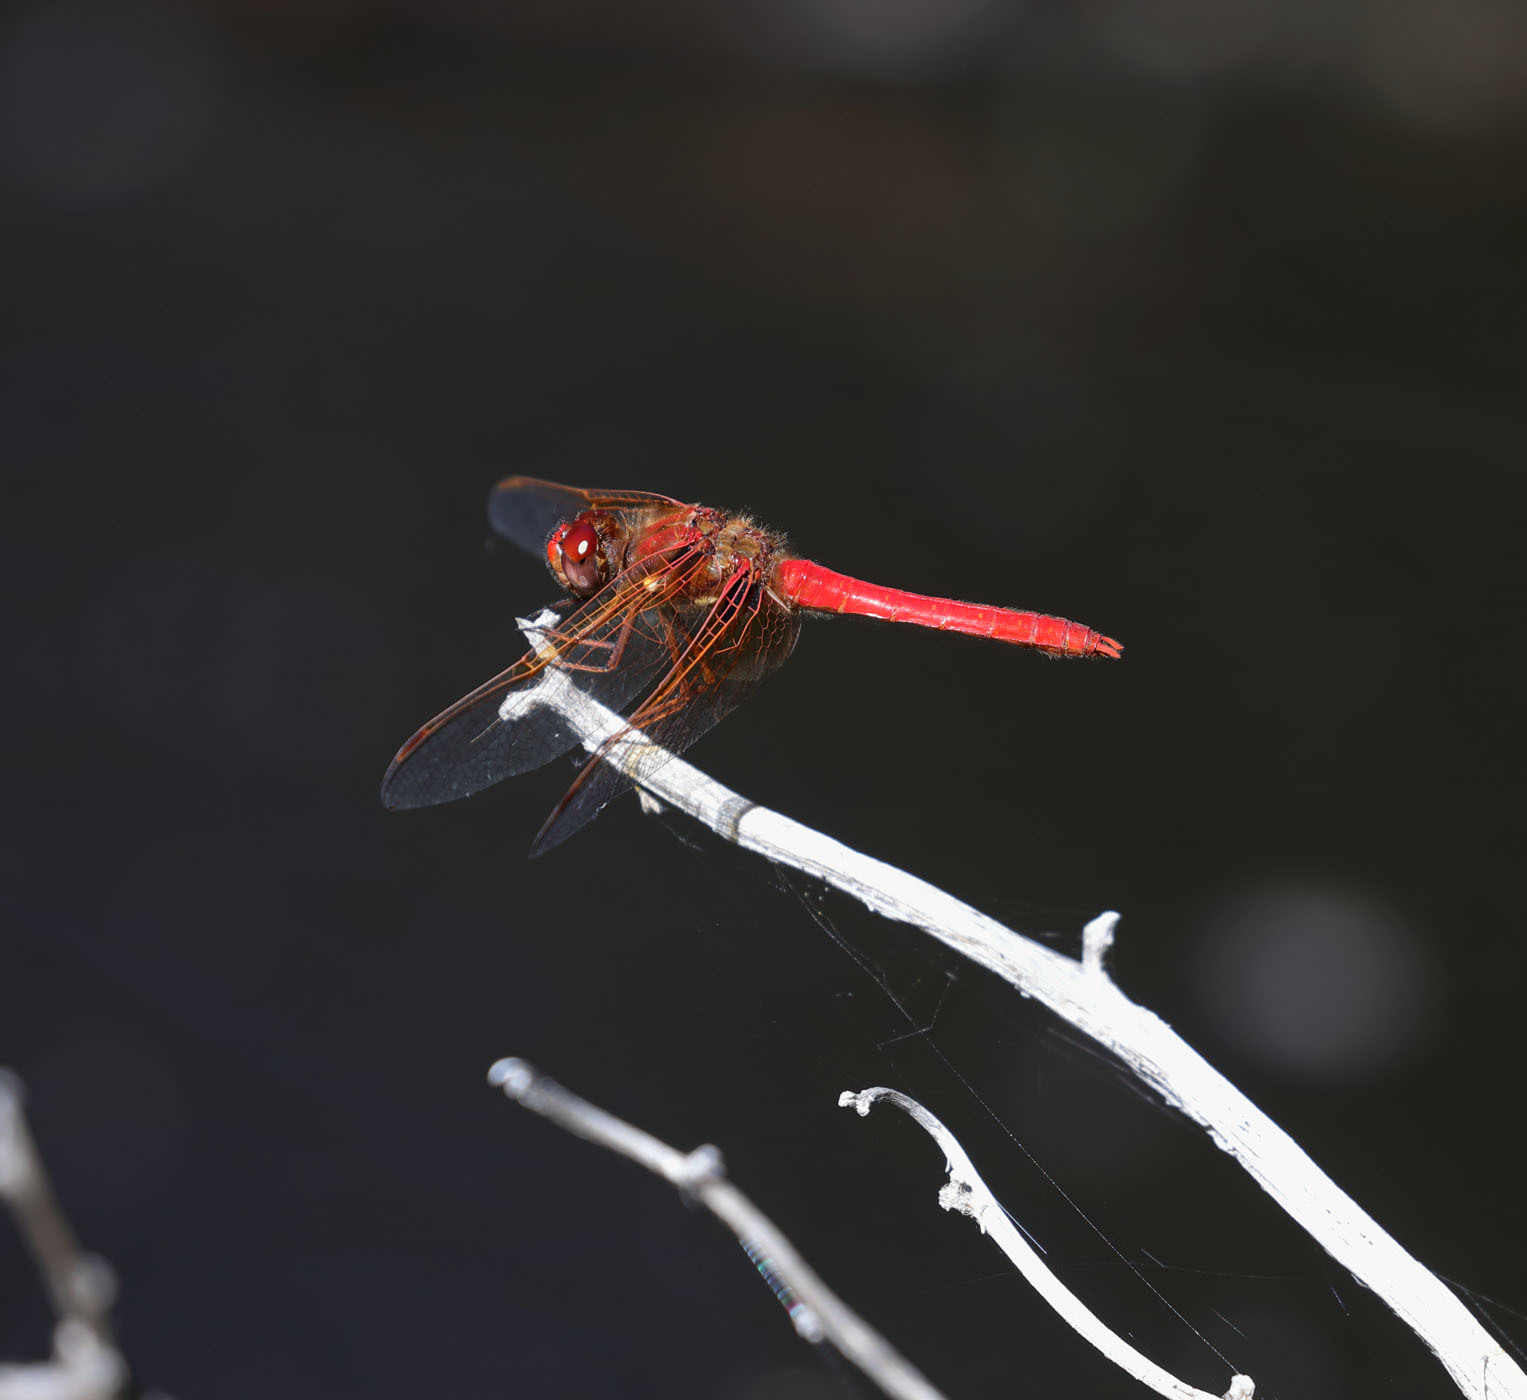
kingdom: Animalia
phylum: Arthropoda
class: Insecta
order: Odonata
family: Libellulidae
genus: Sympetrum
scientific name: Sympetrum illotum
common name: Cardinal meadowhawk
